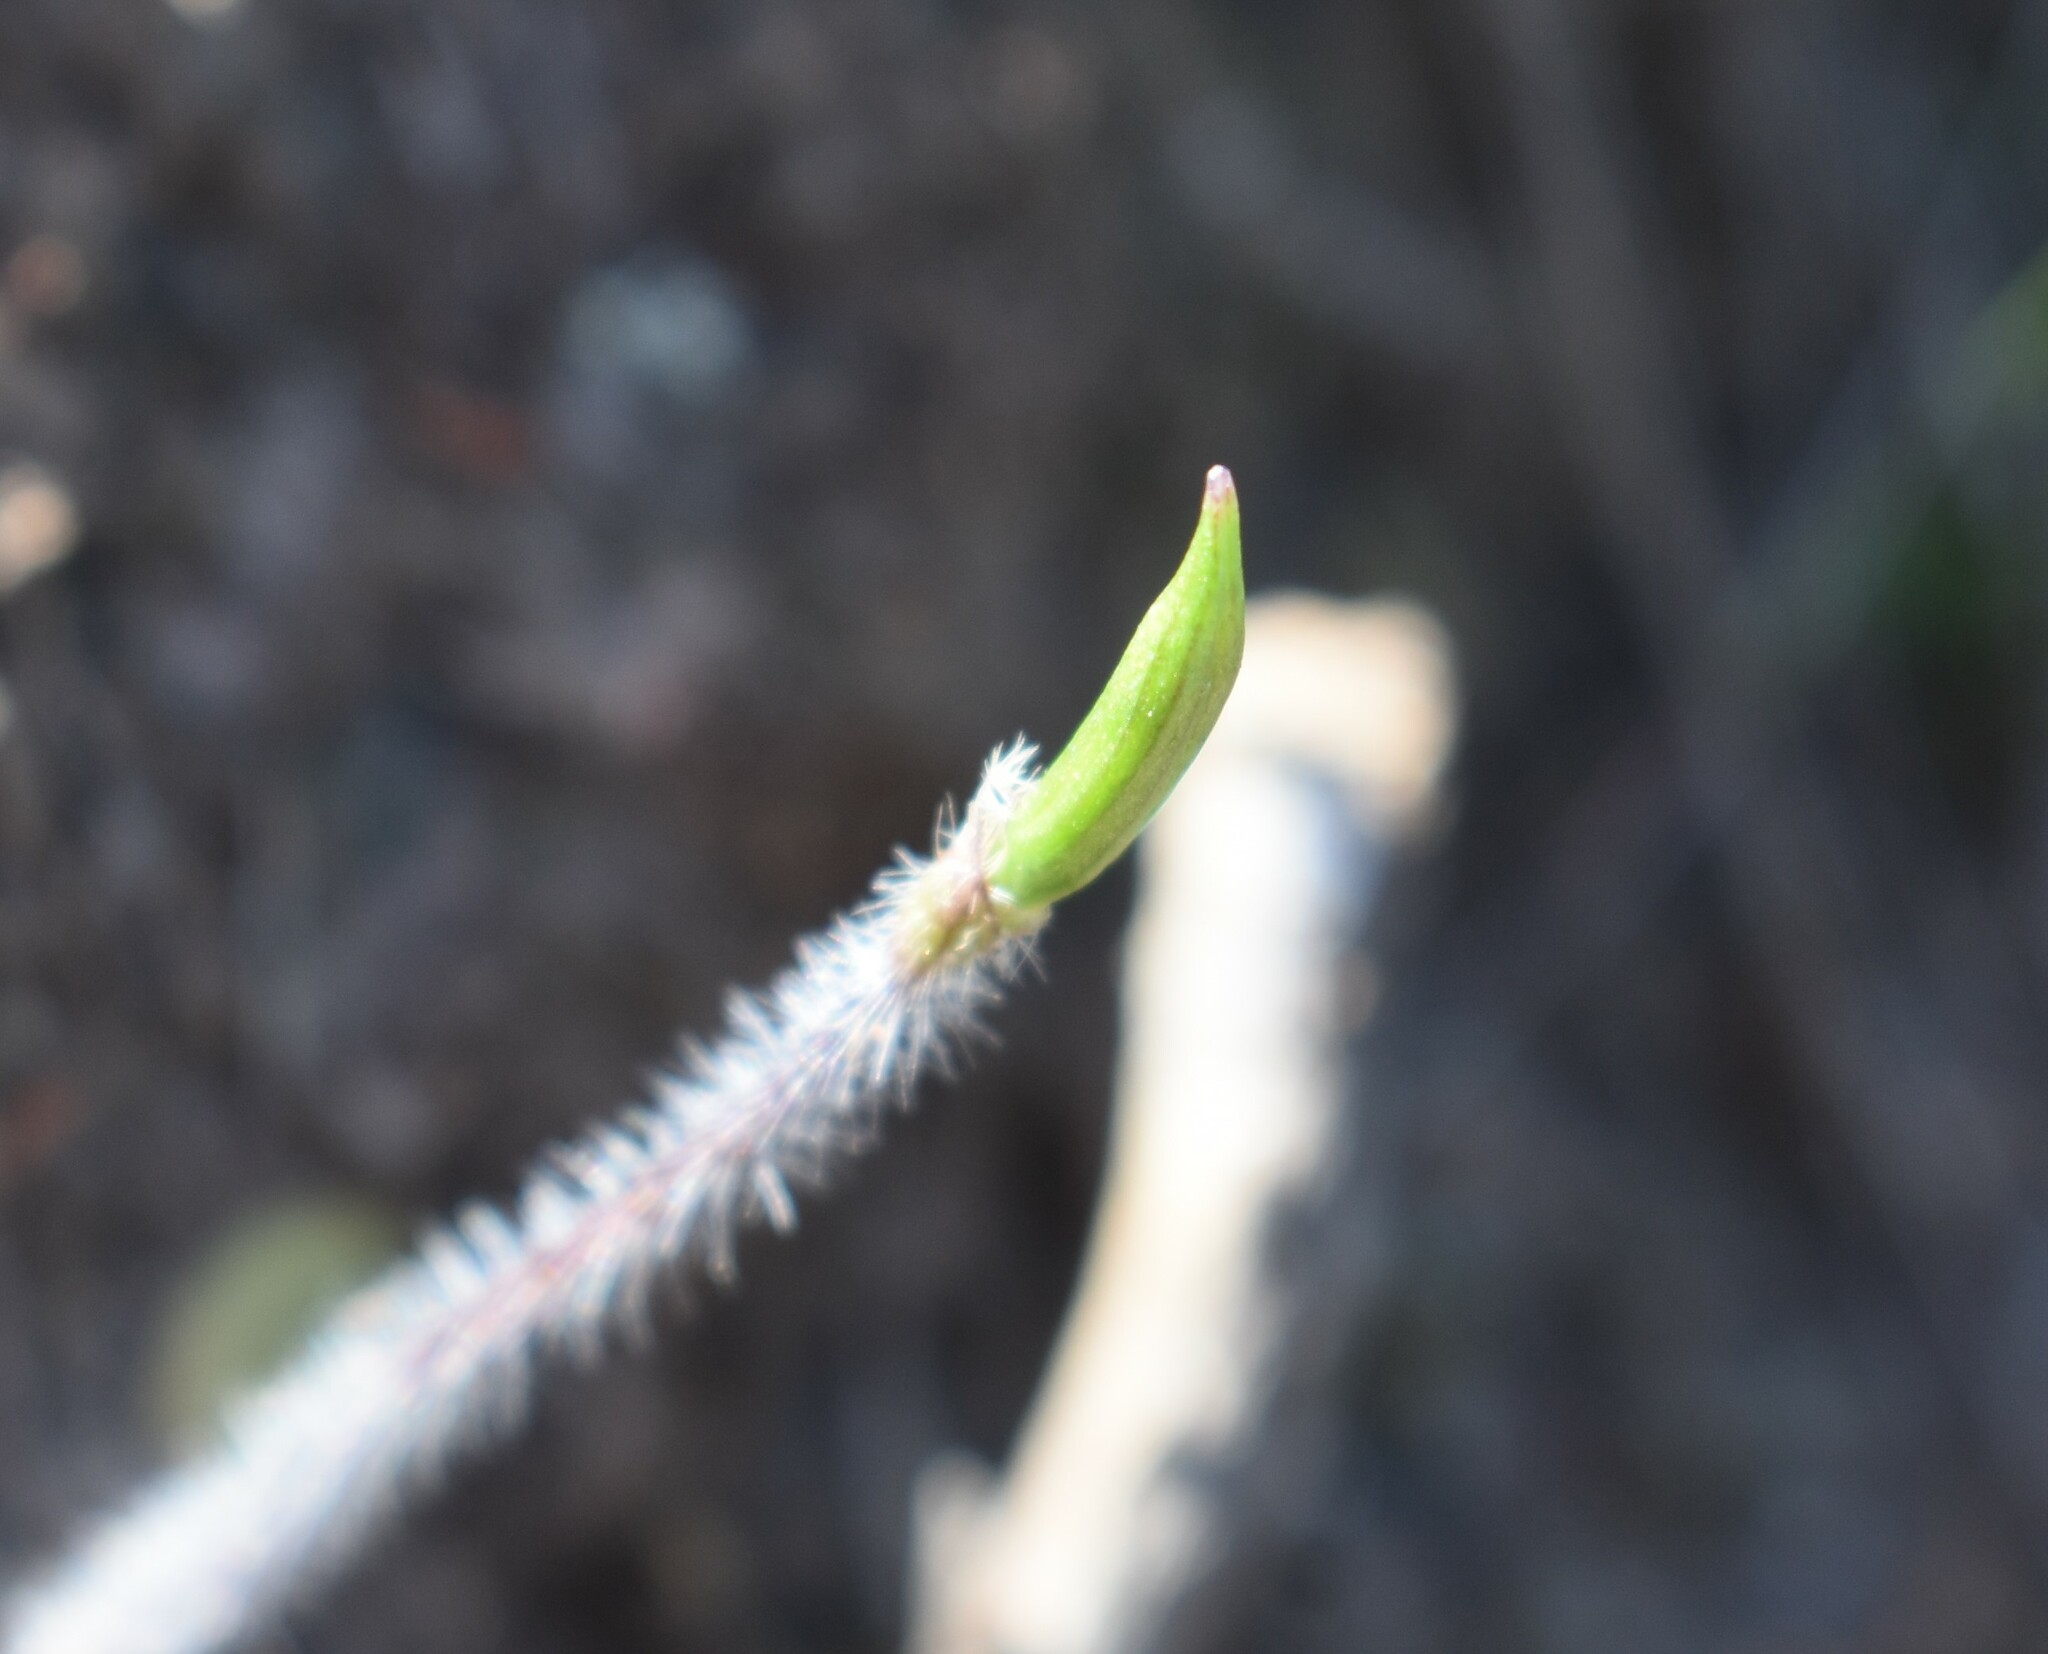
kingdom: Plantae
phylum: Tracheophyta
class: Liliopsida
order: Asparagales
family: Orchidaceae
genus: Holothrix
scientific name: Holothrix etheliae
